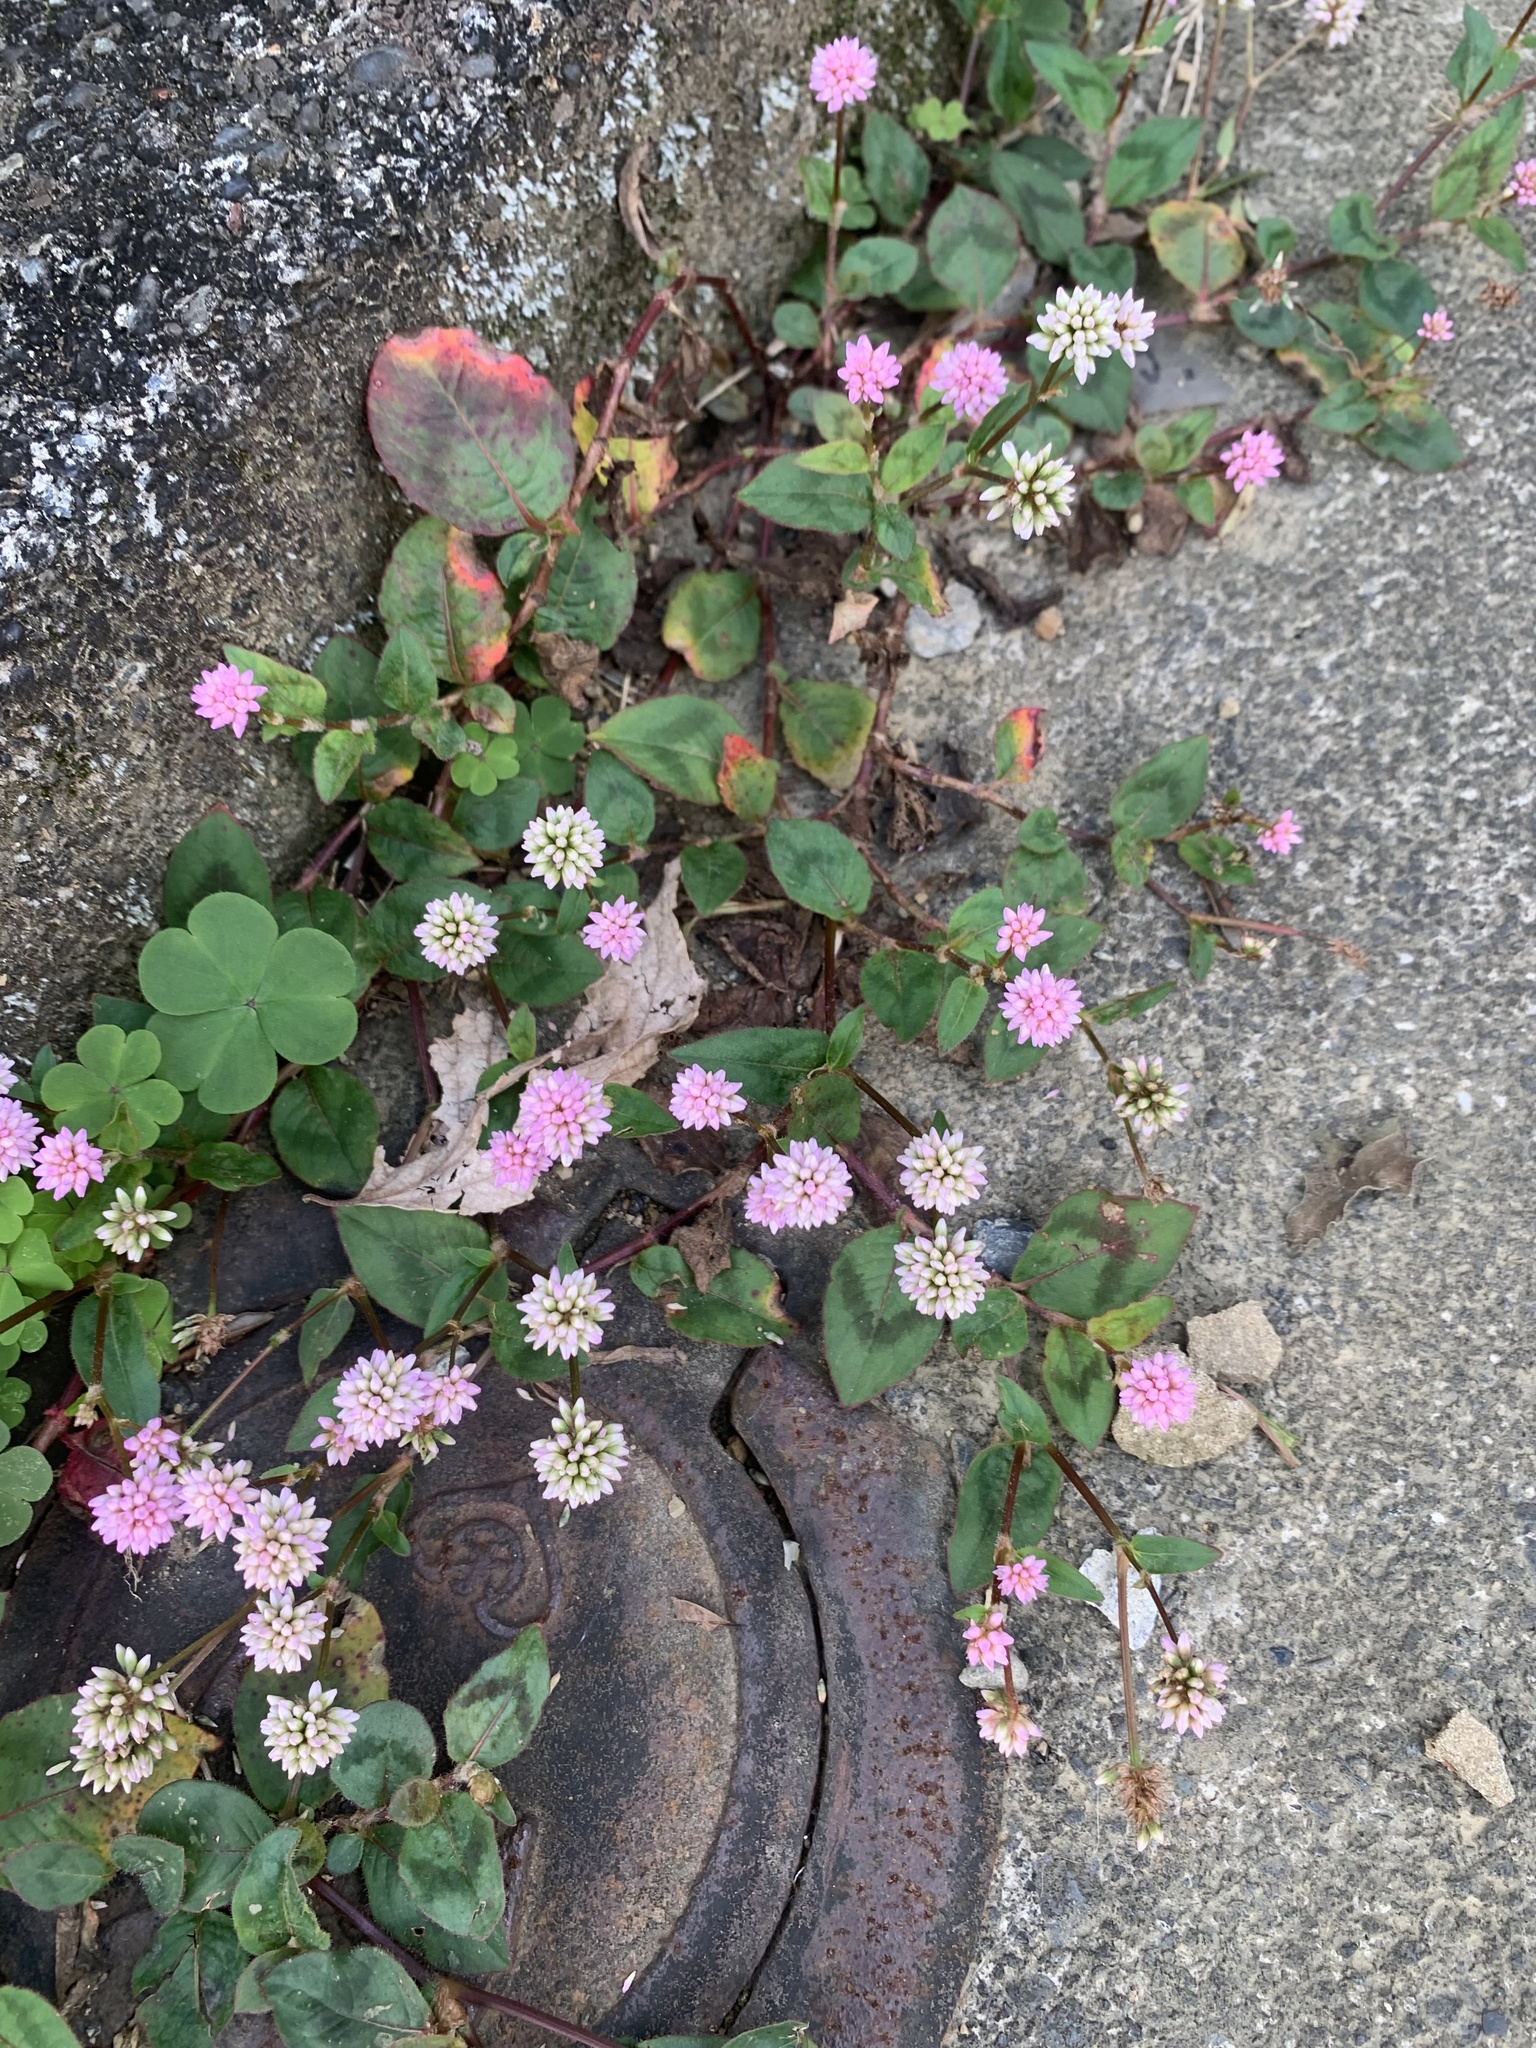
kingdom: Plantae
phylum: Tracheophyta
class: Magnoliopsida
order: Caryophyllales
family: Polygonaceae
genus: Persicaria
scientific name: Persicaria capitata
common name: Pinkhead smartweed
